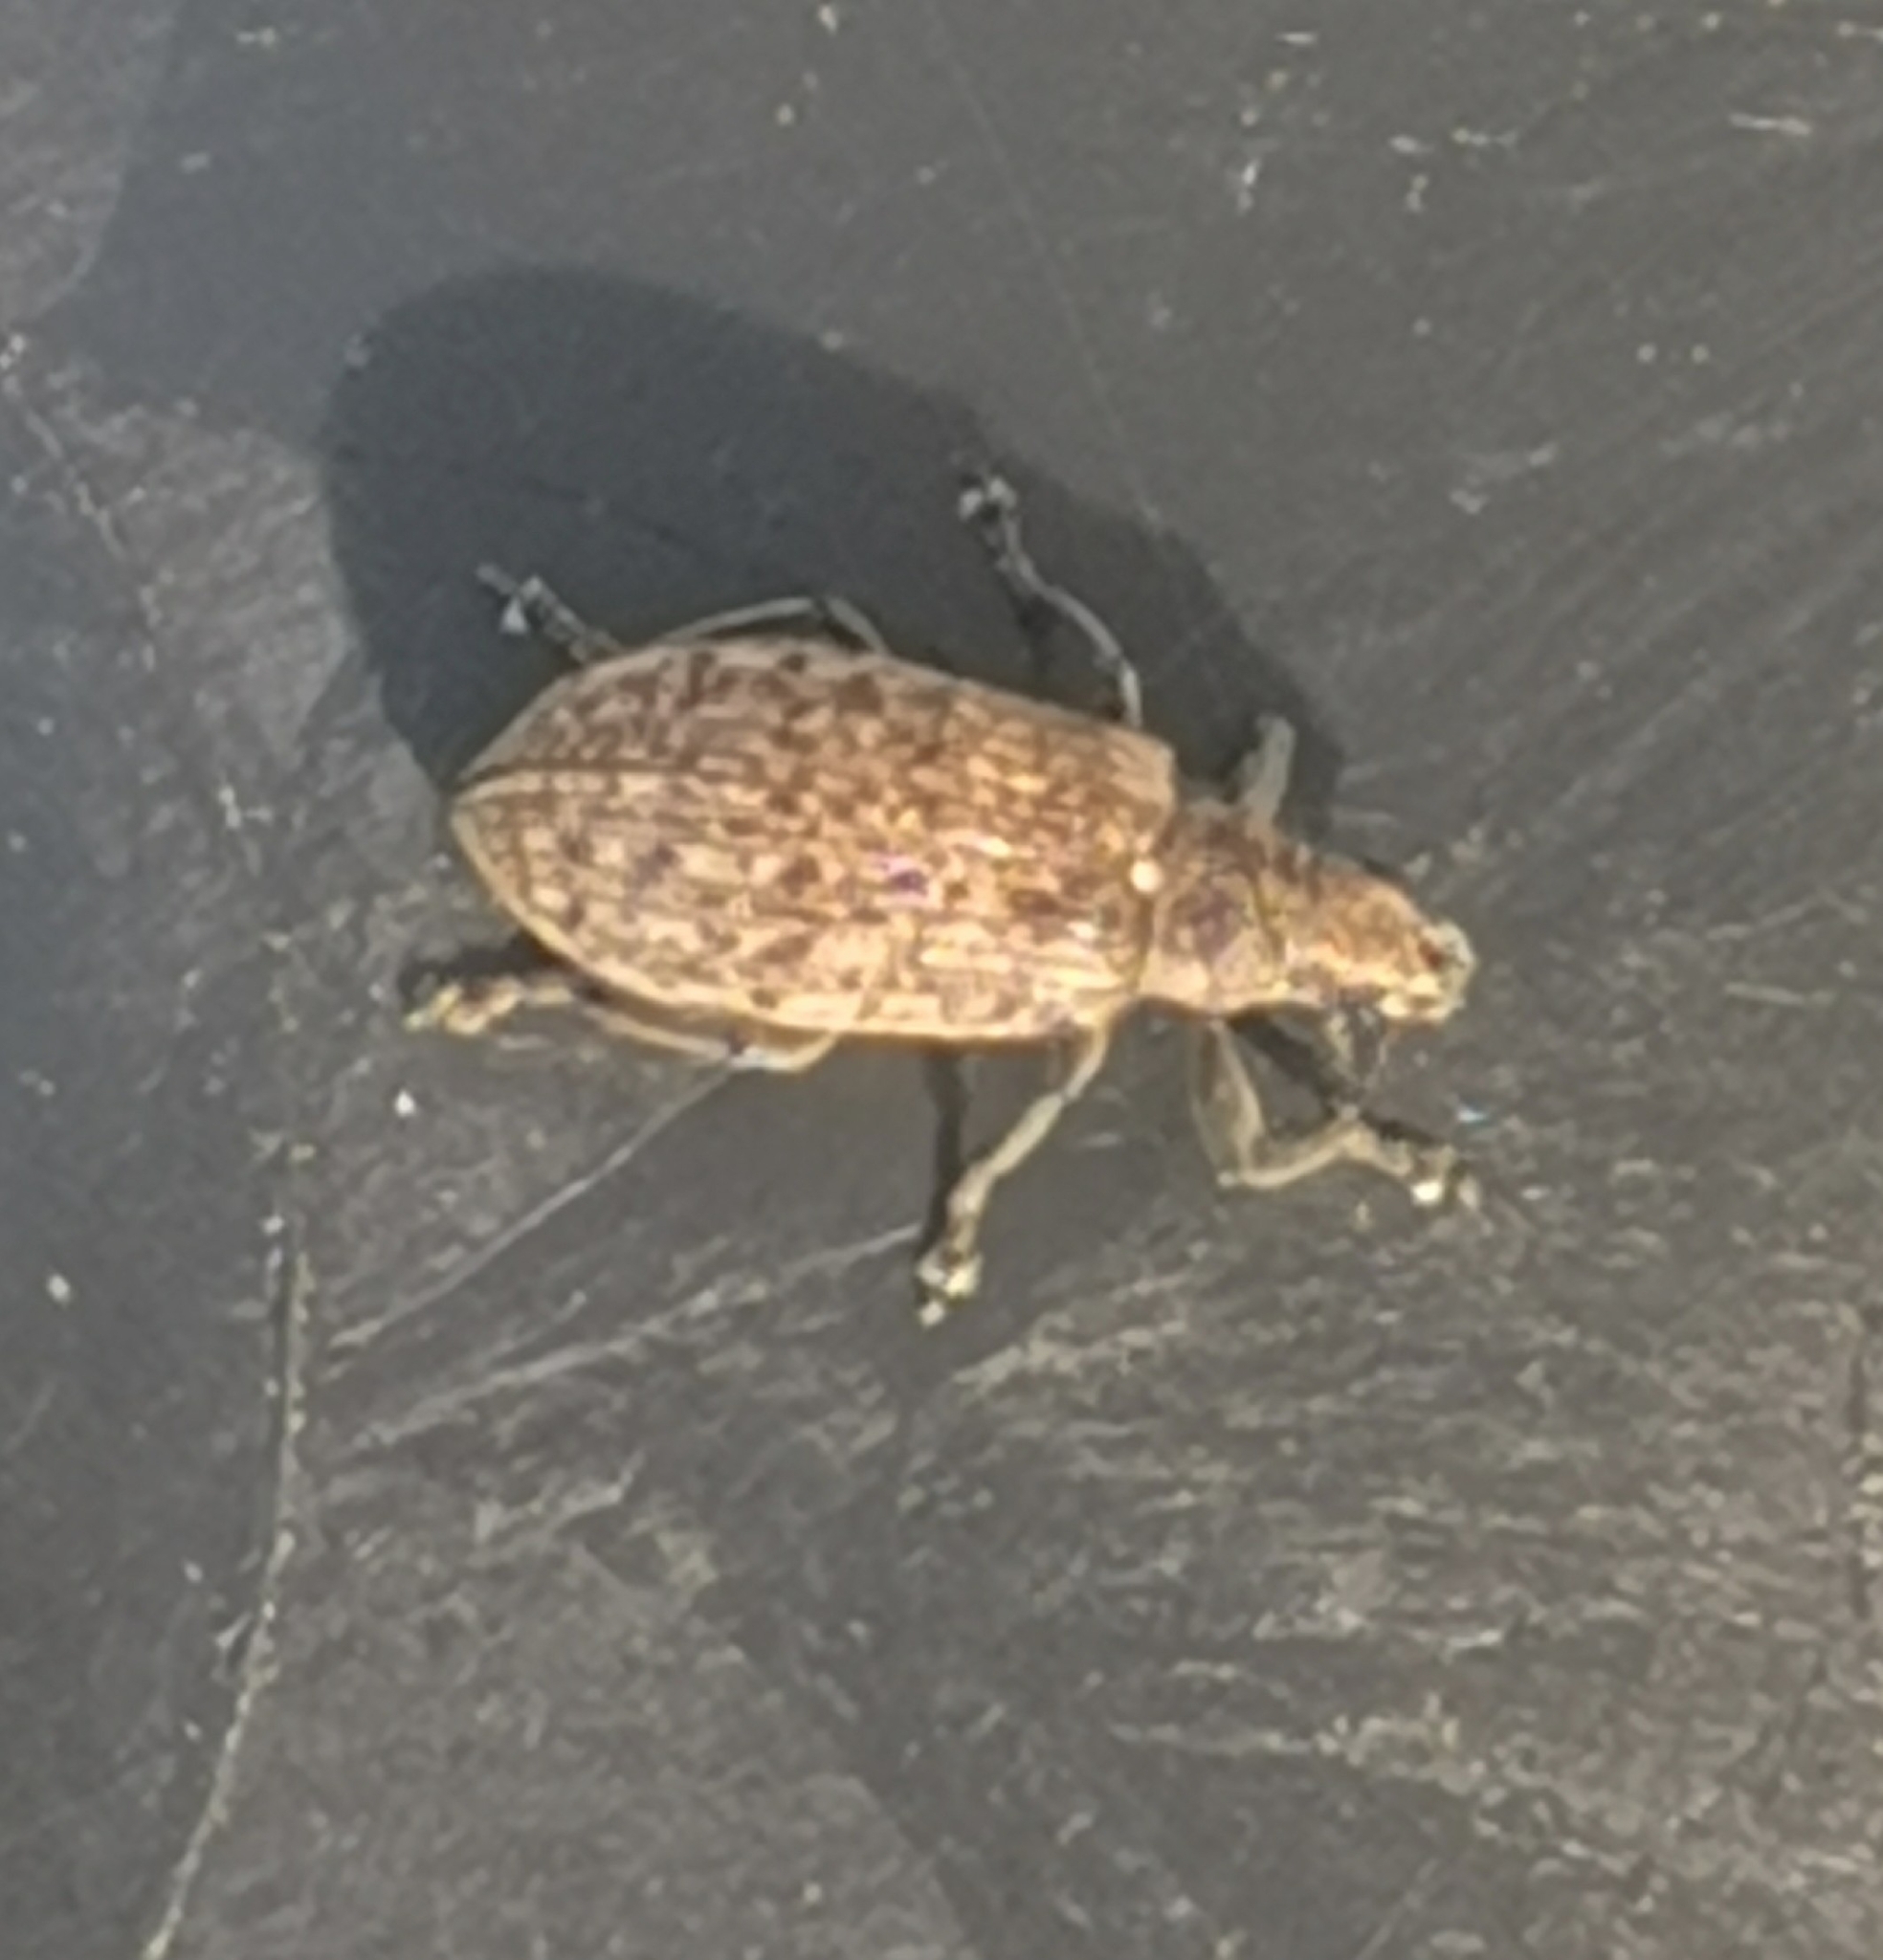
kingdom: Animalia
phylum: Arthropoda
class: Insecta
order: Coleoptera
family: Curculionidae
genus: Polydrusus
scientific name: Polydrusus pilosus
